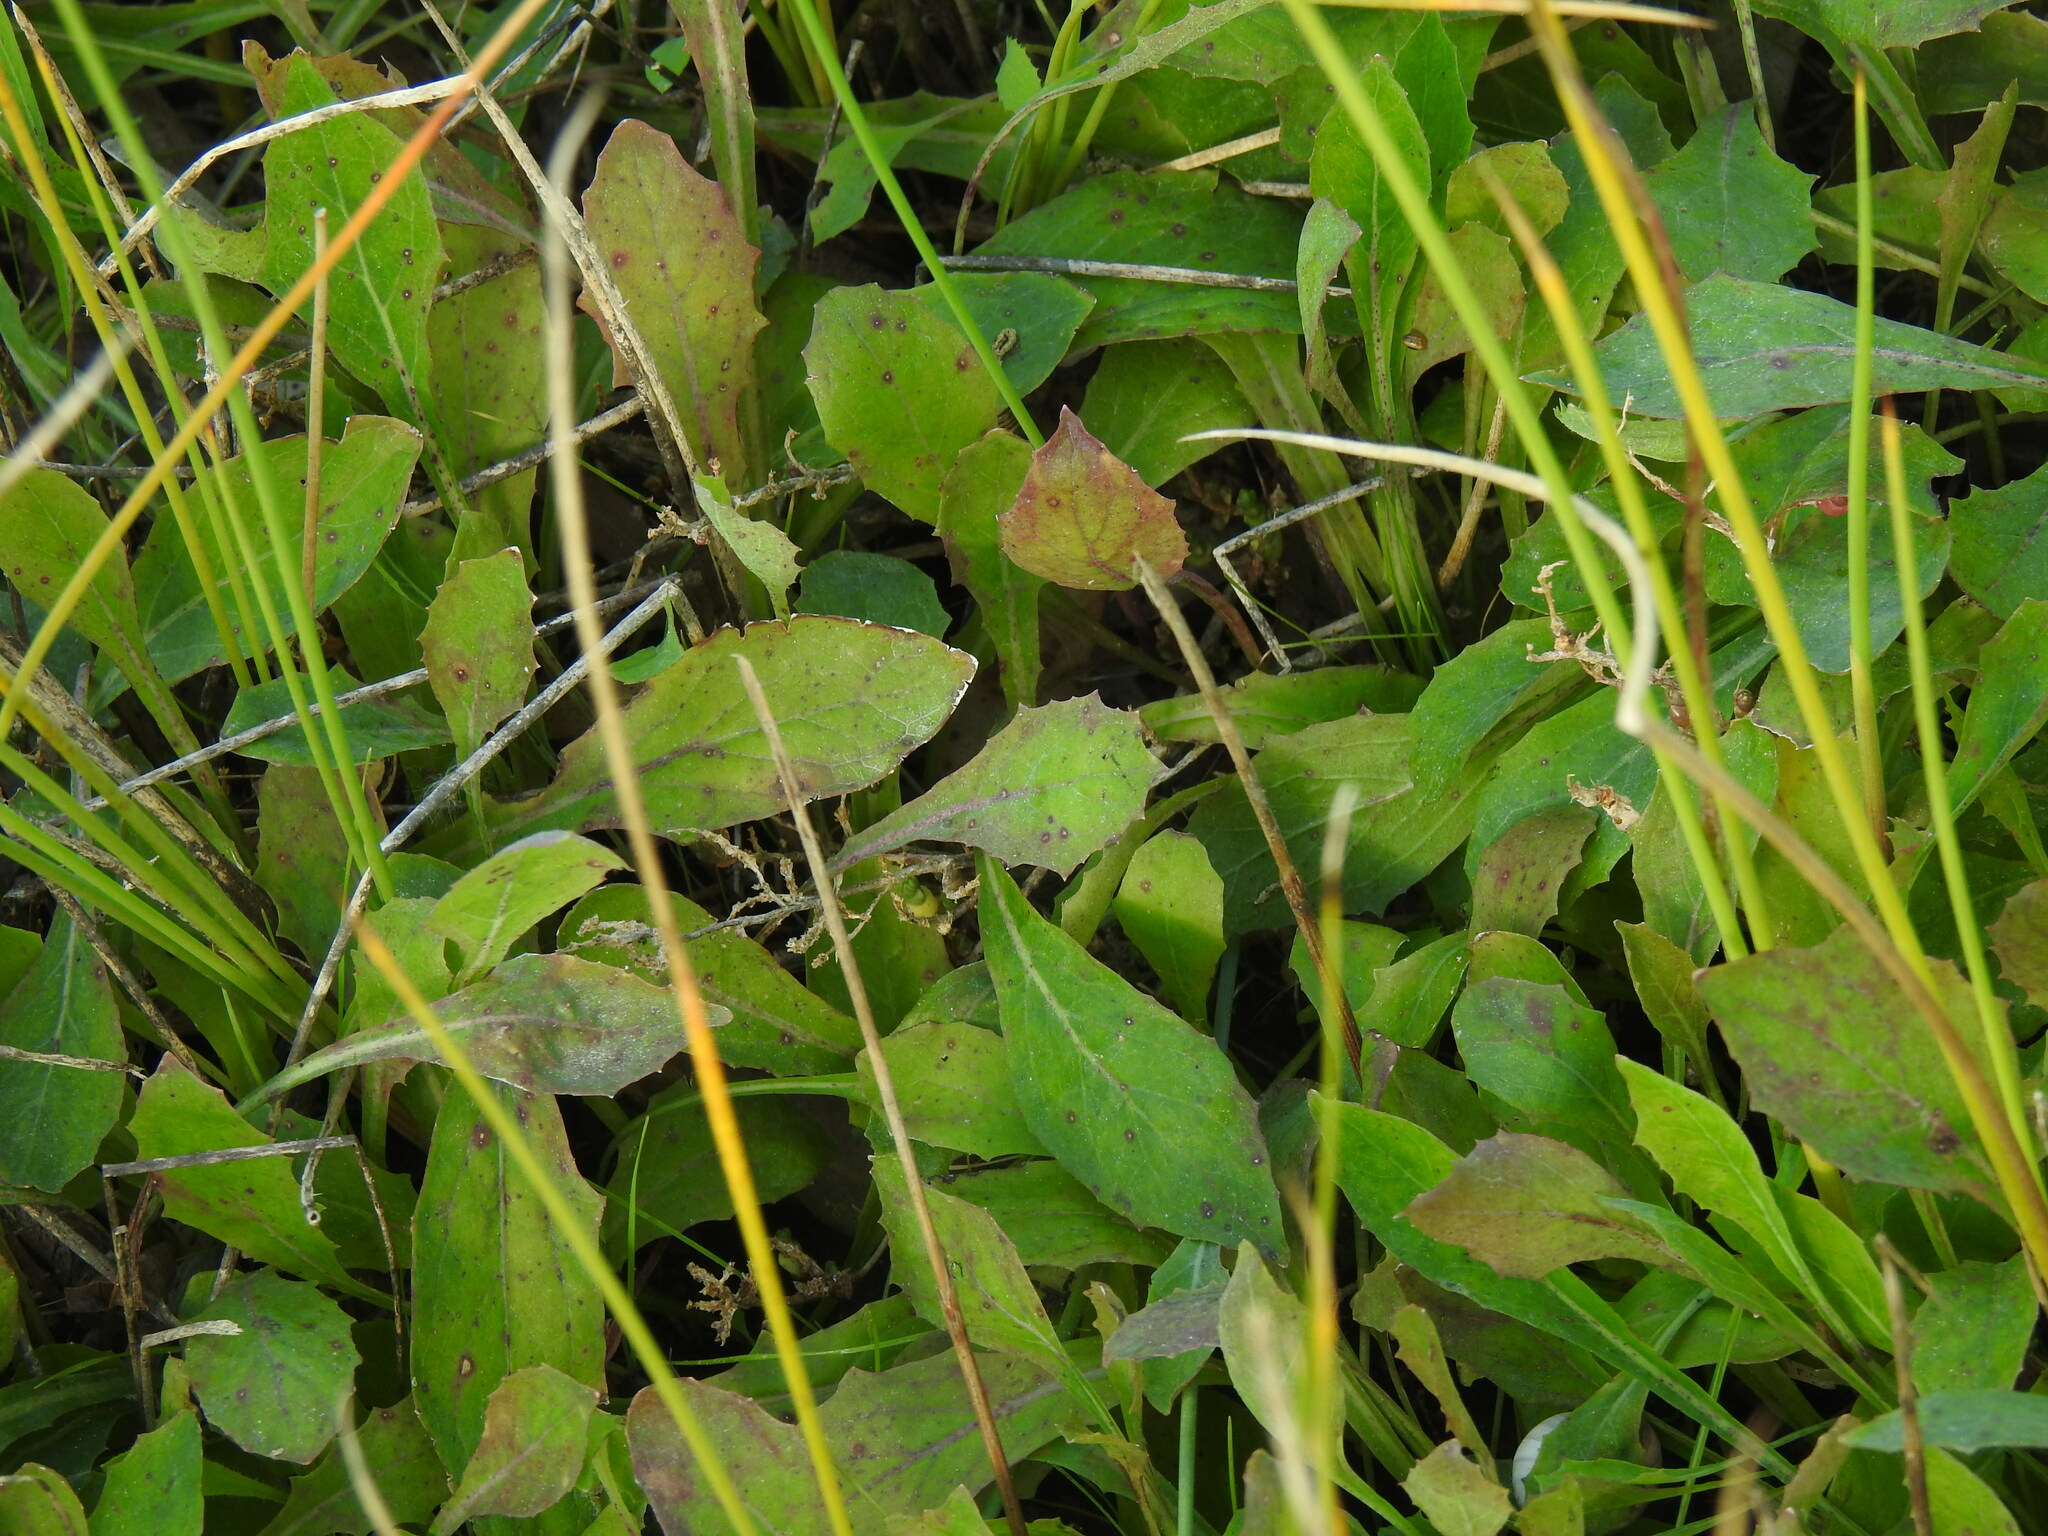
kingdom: Plantae
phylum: Tracheophyta
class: Magnoliopsida
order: Asterales
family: Asteraceae
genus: Aetheorhiza
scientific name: Aetheorhiza bulbosa
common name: Tuberous hawk's-beard
